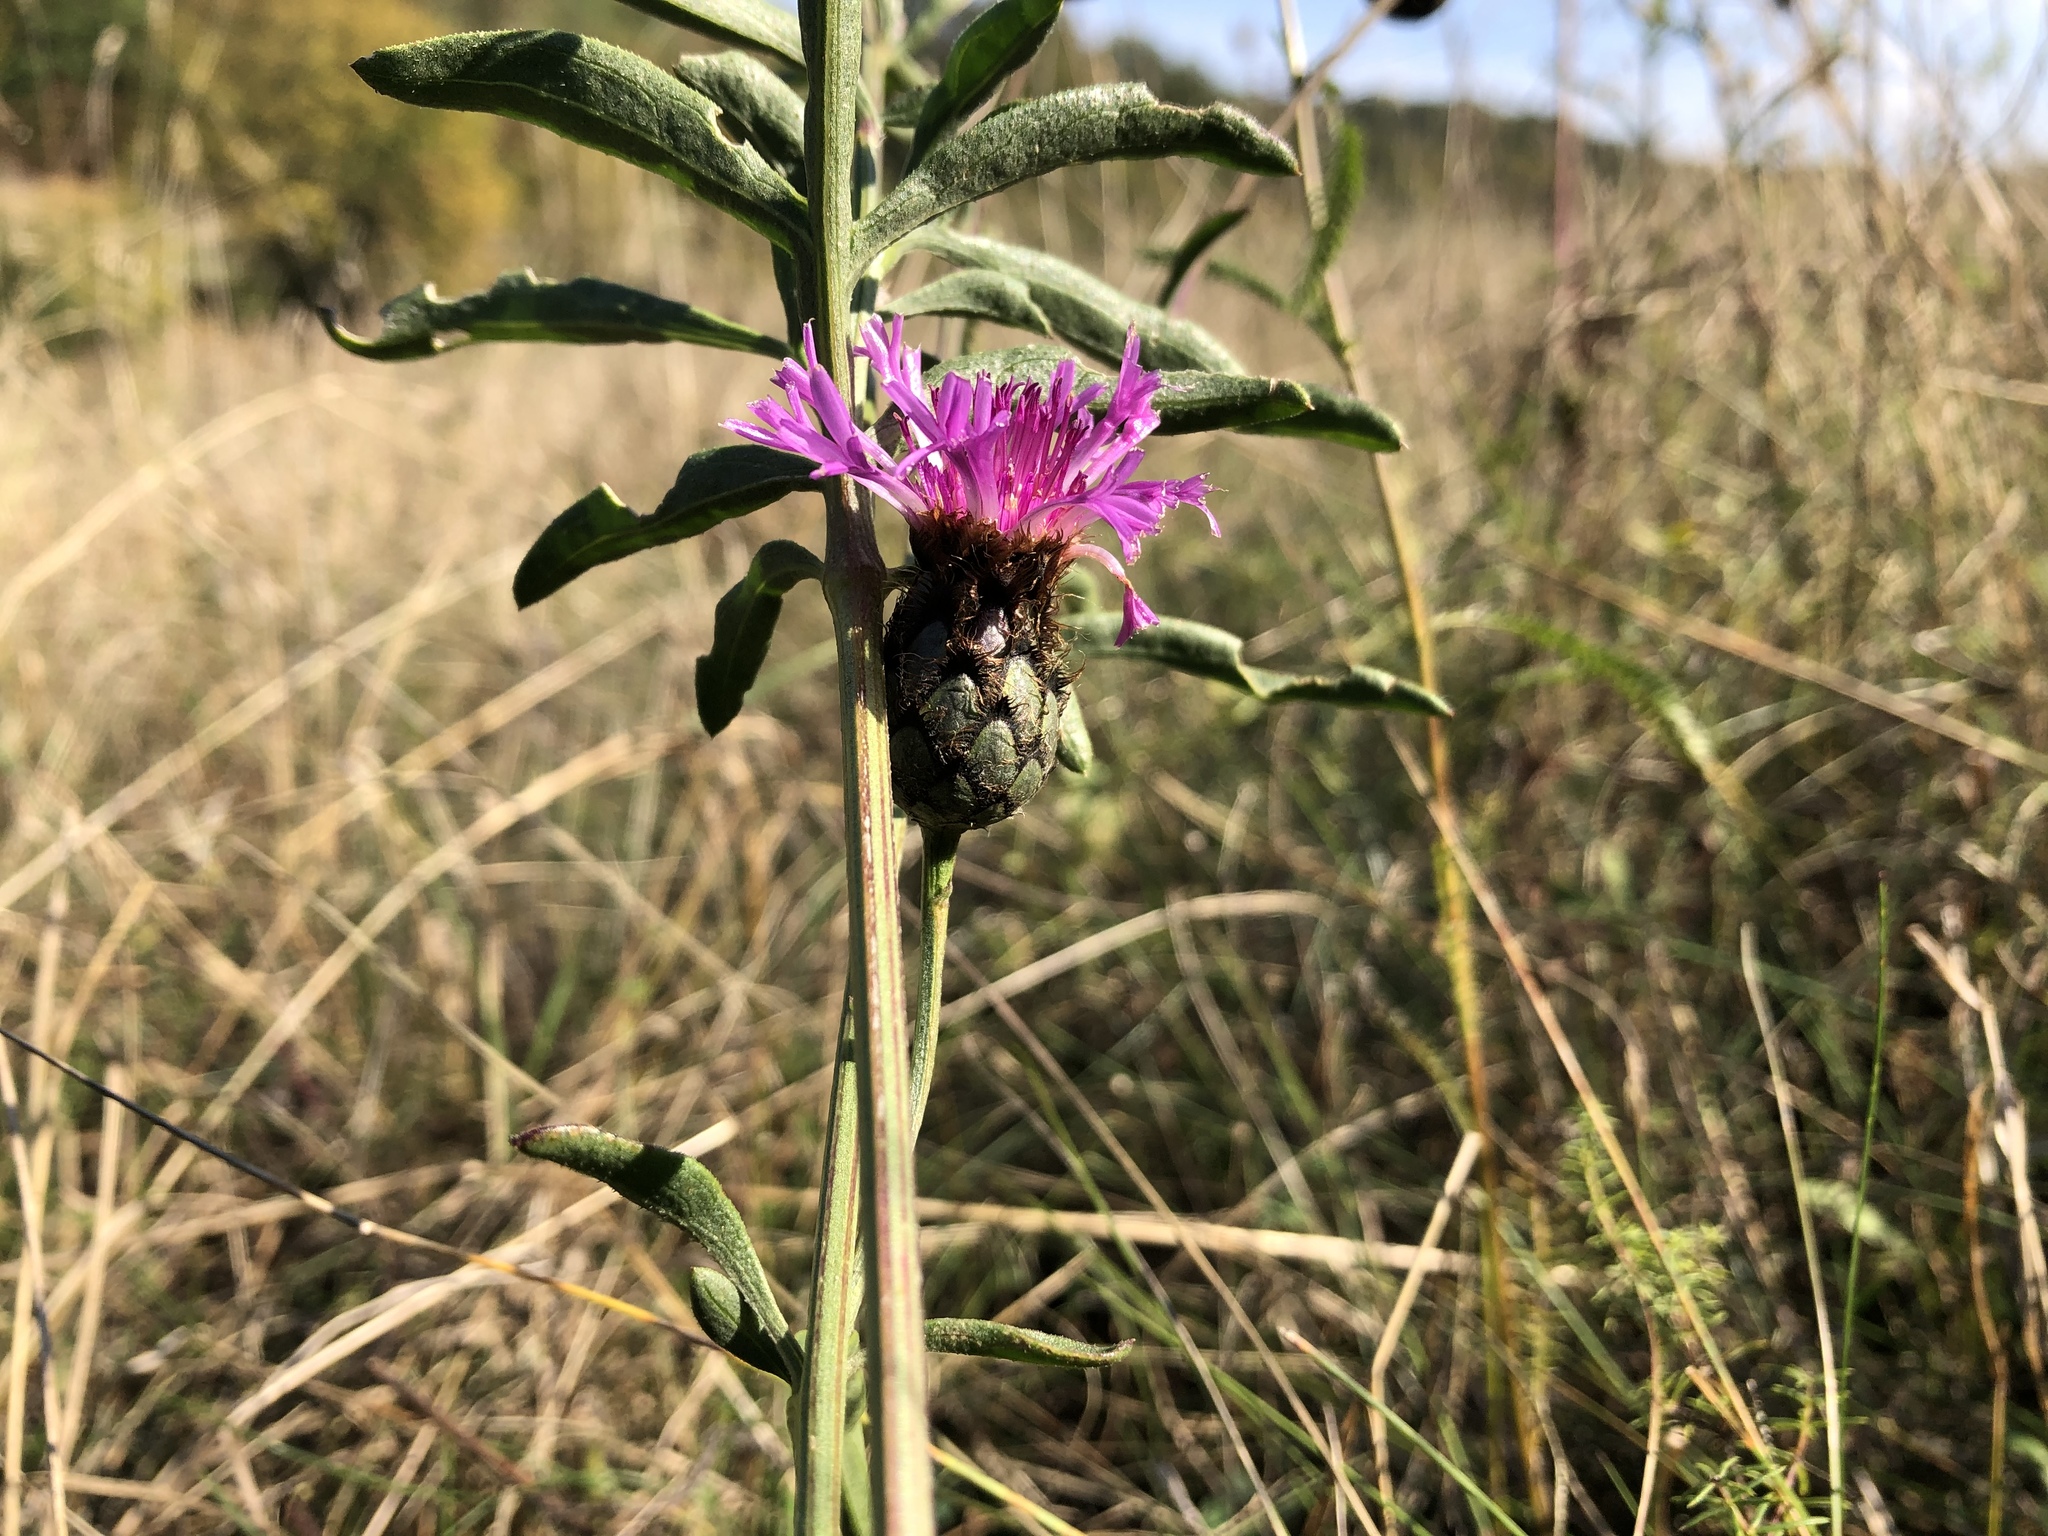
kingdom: Plantae
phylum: Tracheophyta
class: Magnoliopsida
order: Asterales
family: Asteraceae
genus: Centaurea
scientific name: Centaurea scabiosa
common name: Greater knapweed
